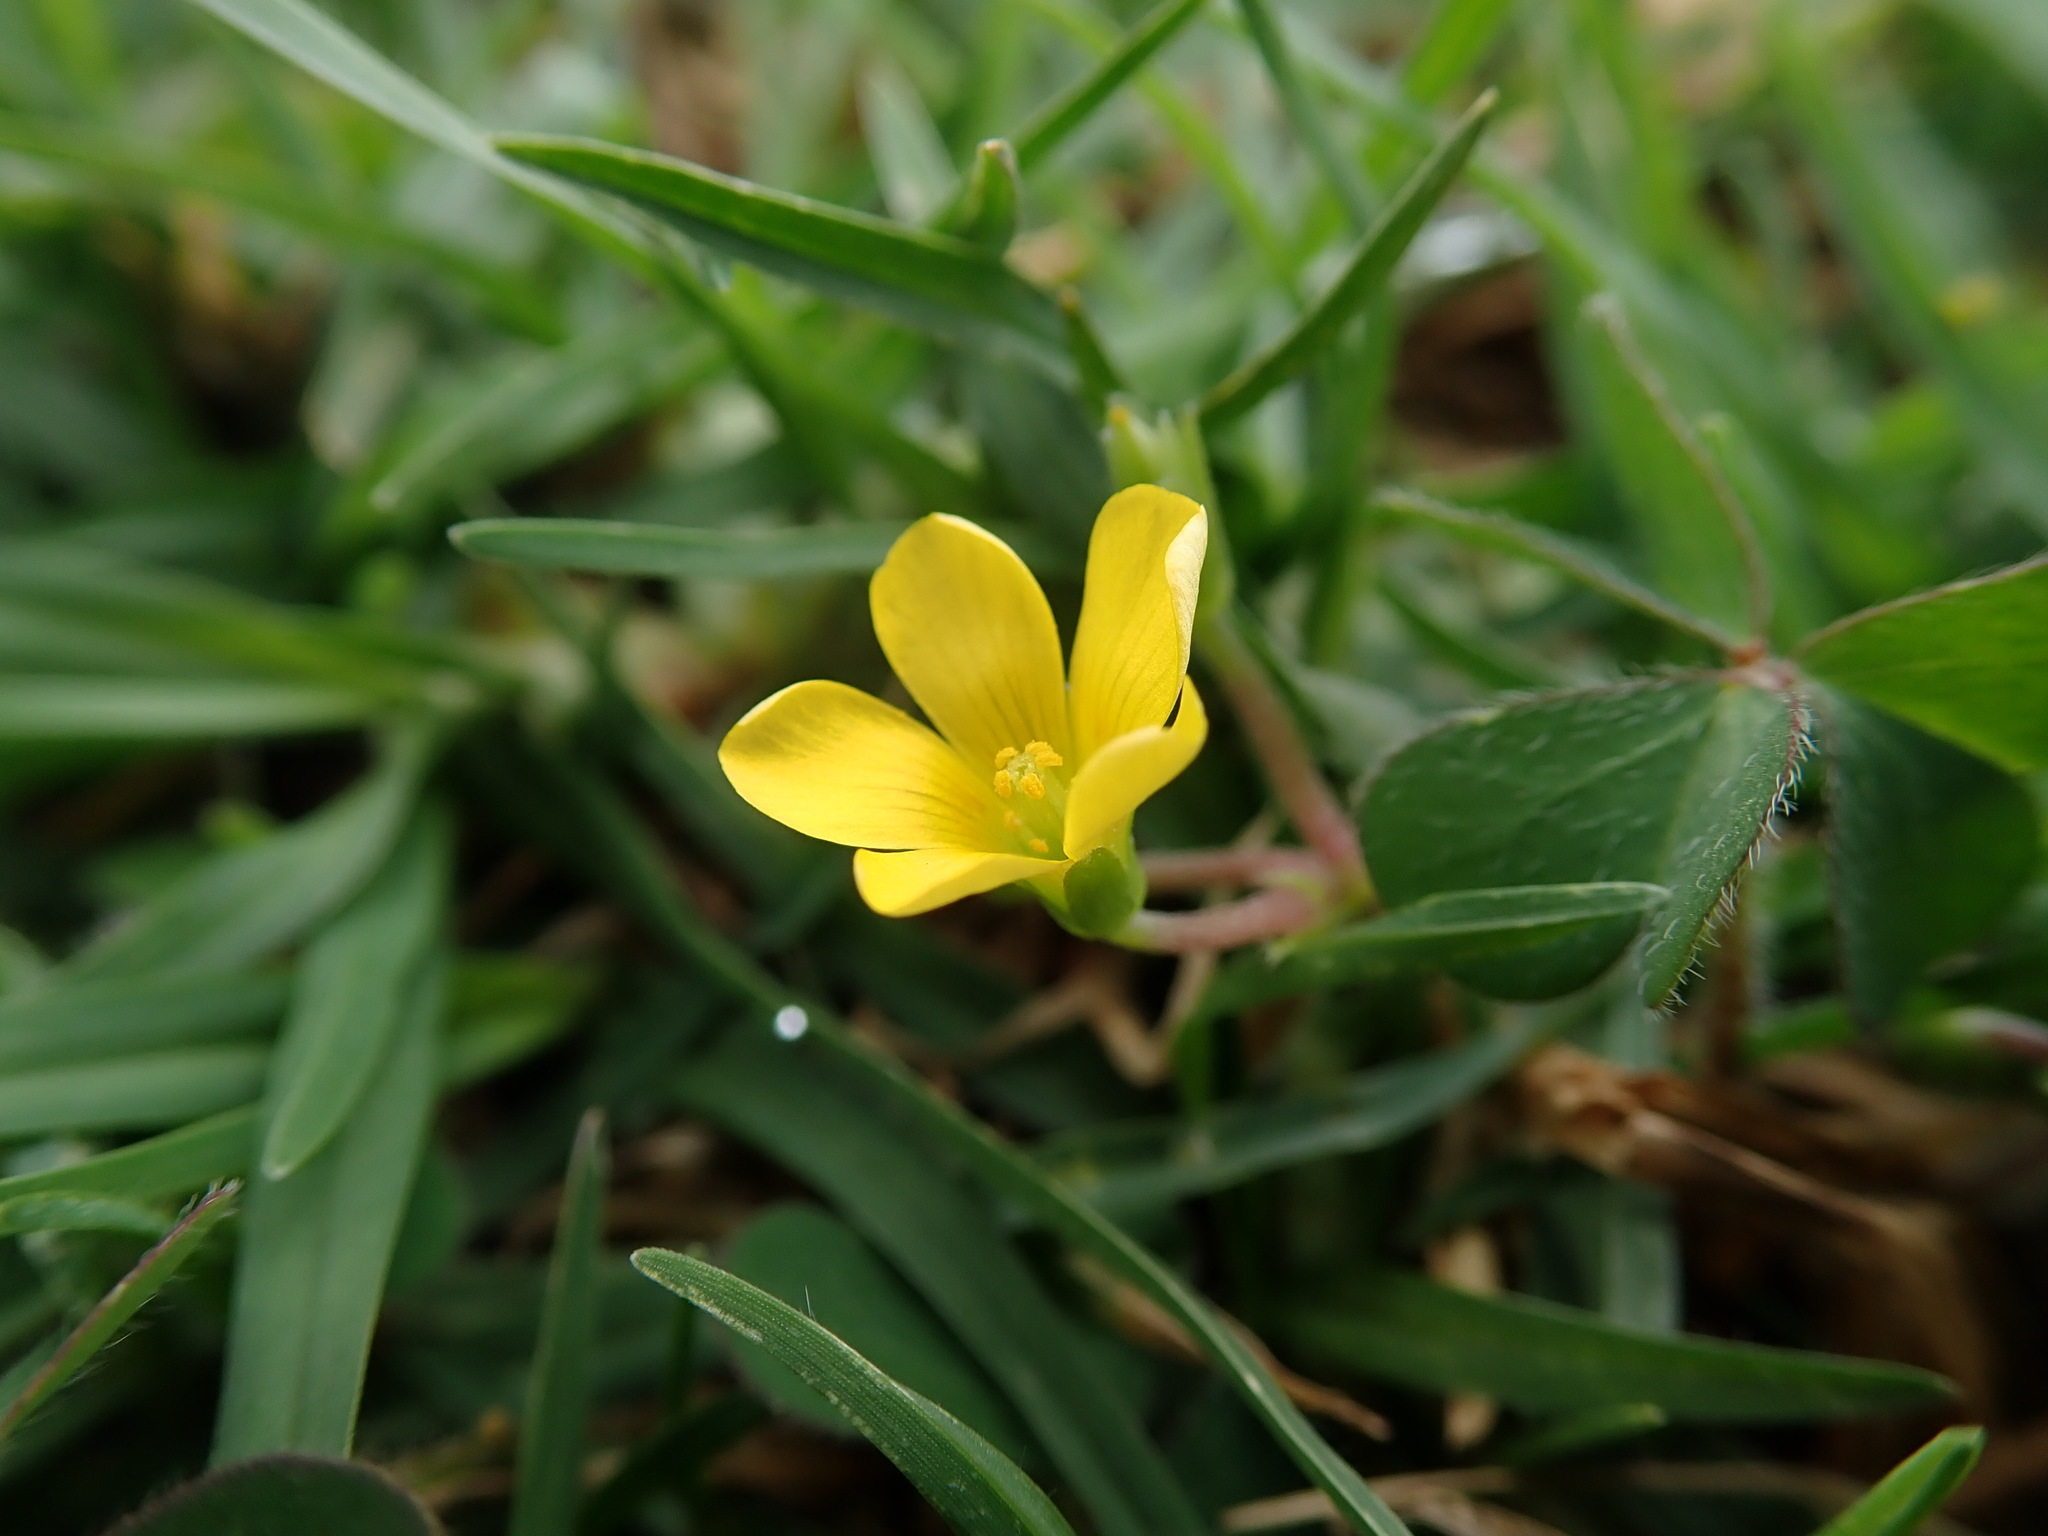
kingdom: Plantae
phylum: Tracheophyta
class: Magnoliopsida
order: Oxalidales
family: Oxalidaceae
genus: Oxalis
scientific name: Oxalis corniculata
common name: Procumbent yellow-sorrel
